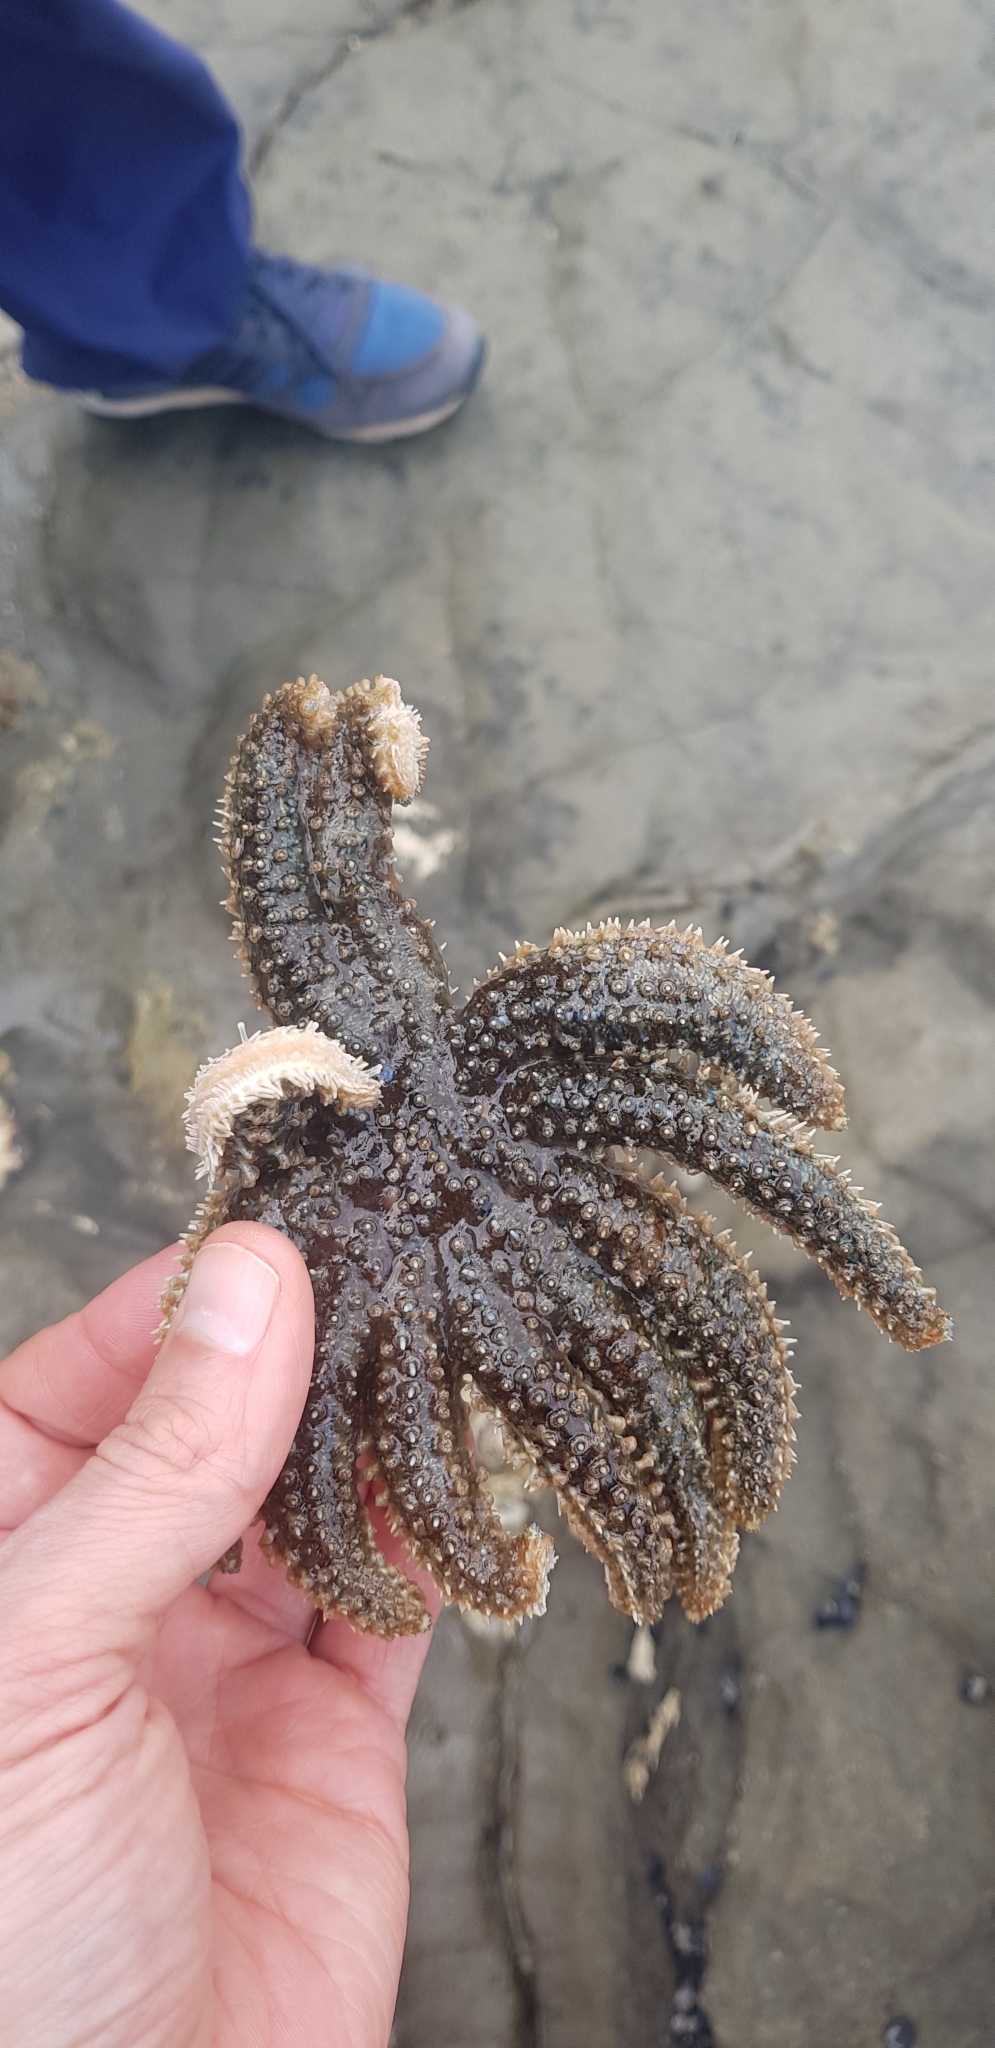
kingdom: Animalia
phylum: Echinodermata
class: Asteroidea
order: Forcipulatida
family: Asteriidae
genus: Coscinasterias
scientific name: Coscinasterias muricata
